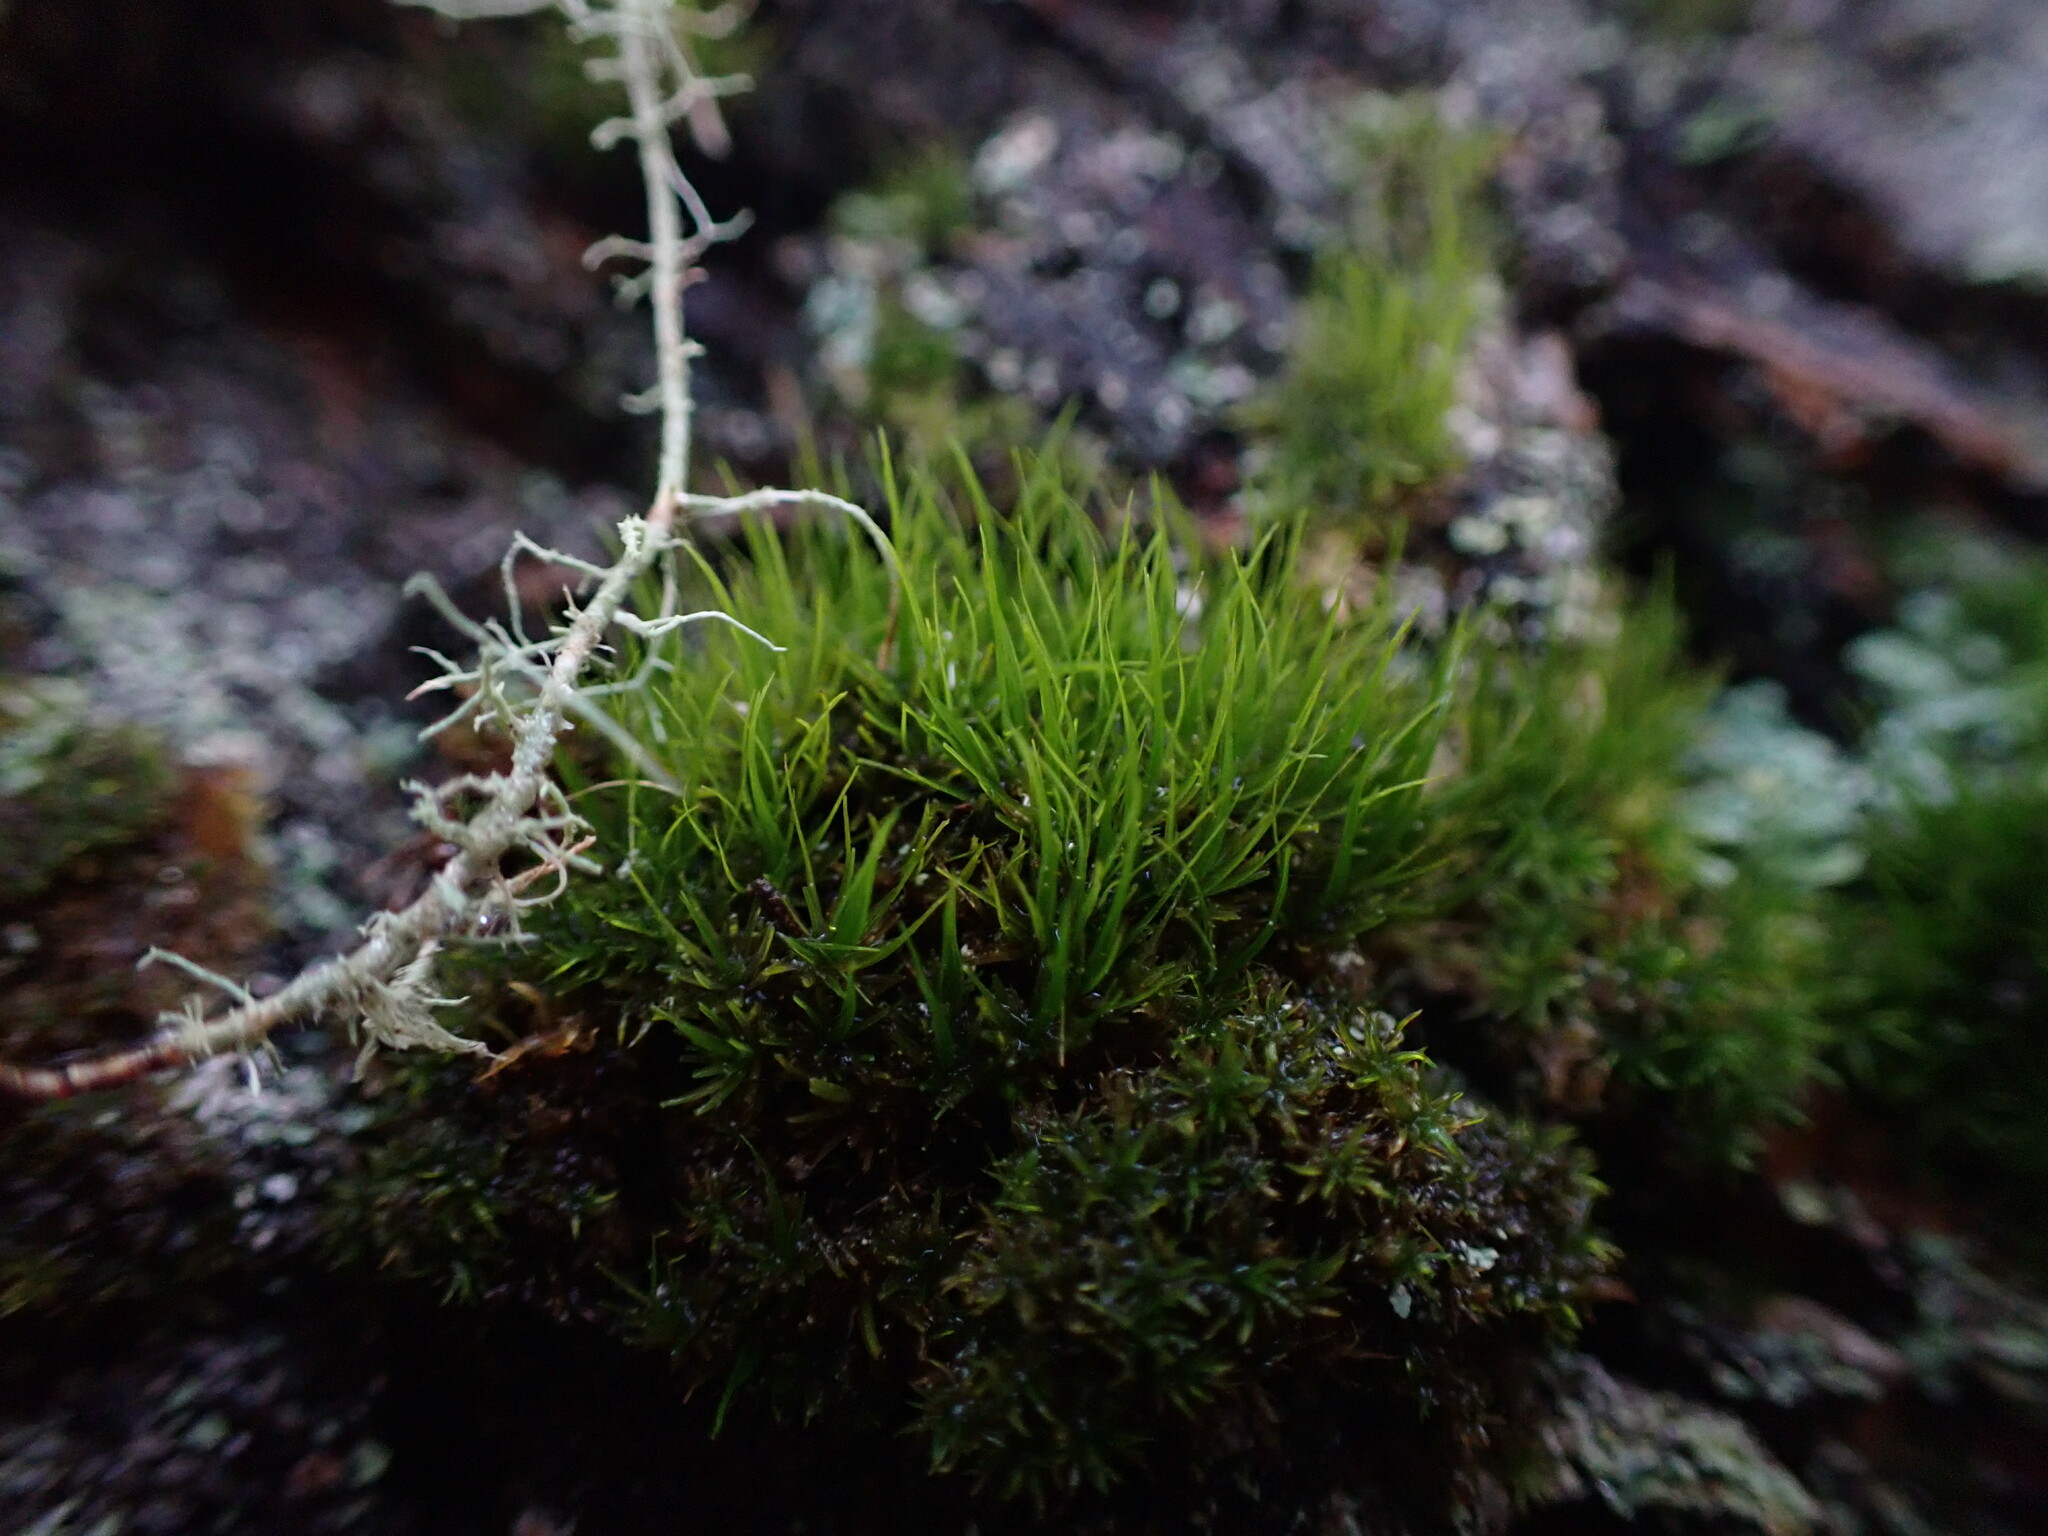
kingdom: Plantae
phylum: Bryophyta
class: Bryopsida
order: Dicranales
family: Dicranaceae
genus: Orthodicranum
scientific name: Orthodicranum tauricum
